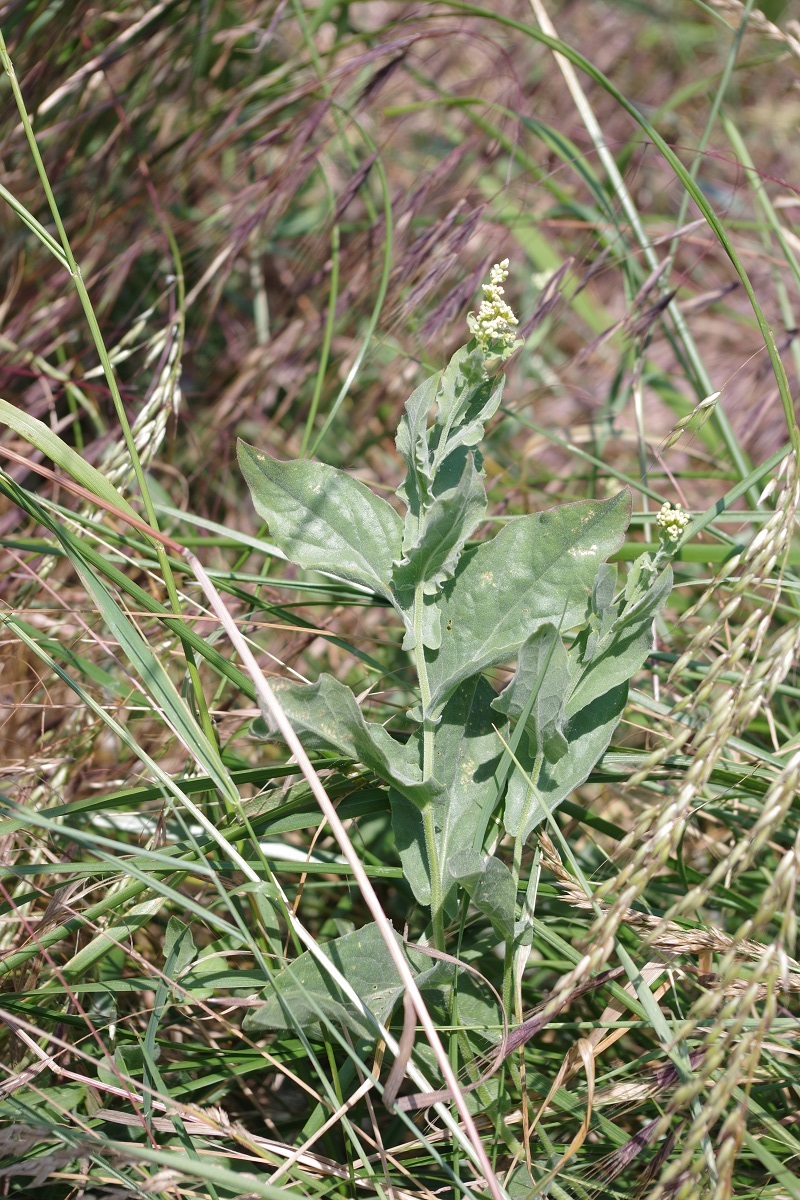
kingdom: Plantae
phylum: Tracheophyta
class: Magnoliopsida
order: Brassicales
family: Brassicaceae
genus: Lepidium
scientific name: Lepidium draba
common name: Hoary cress
